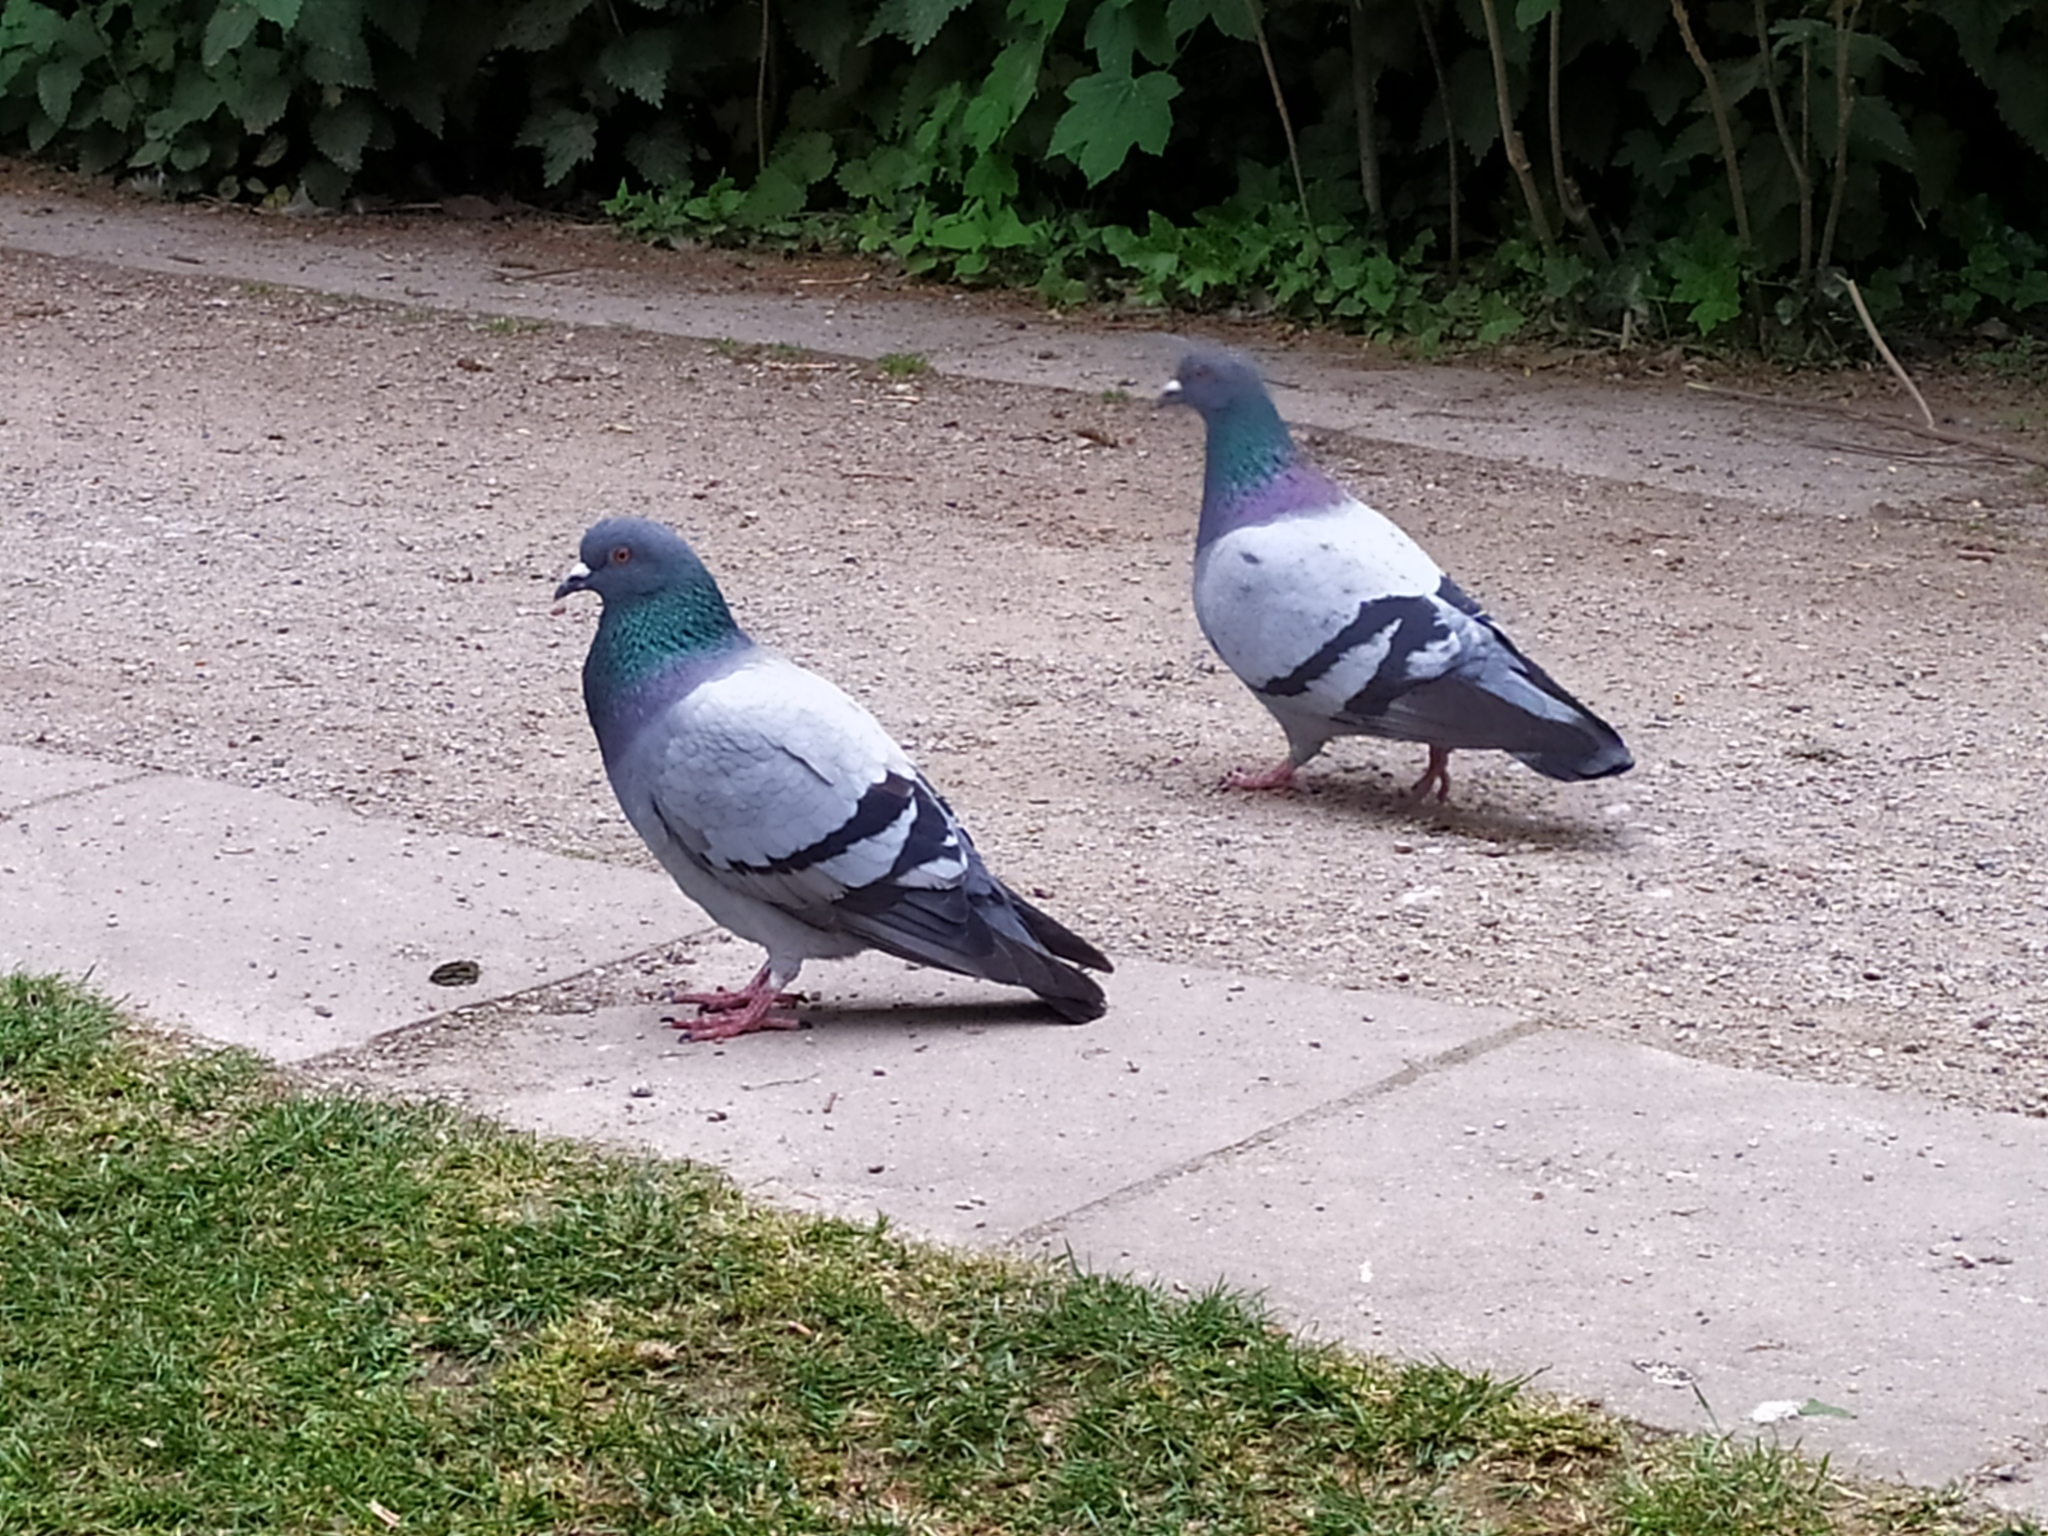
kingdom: Animalia
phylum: Chordata
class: Aves
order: Columbiformes
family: Columbidae
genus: Columba
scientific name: Columba livia
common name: Rock pigeon
